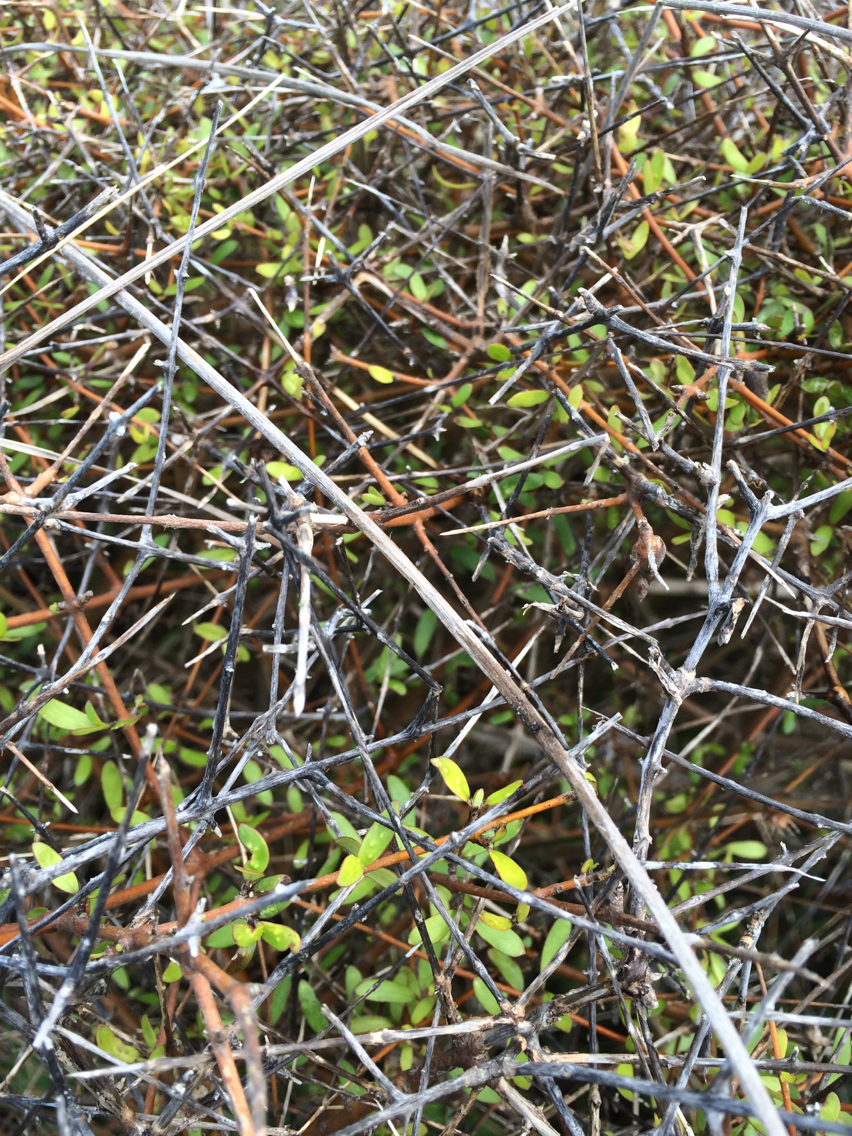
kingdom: Plantae
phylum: Tracheophyta
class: Magnoliopsida
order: Gentianales
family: Rubiaceae
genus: Coprosma
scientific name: Coprosma propinqua
